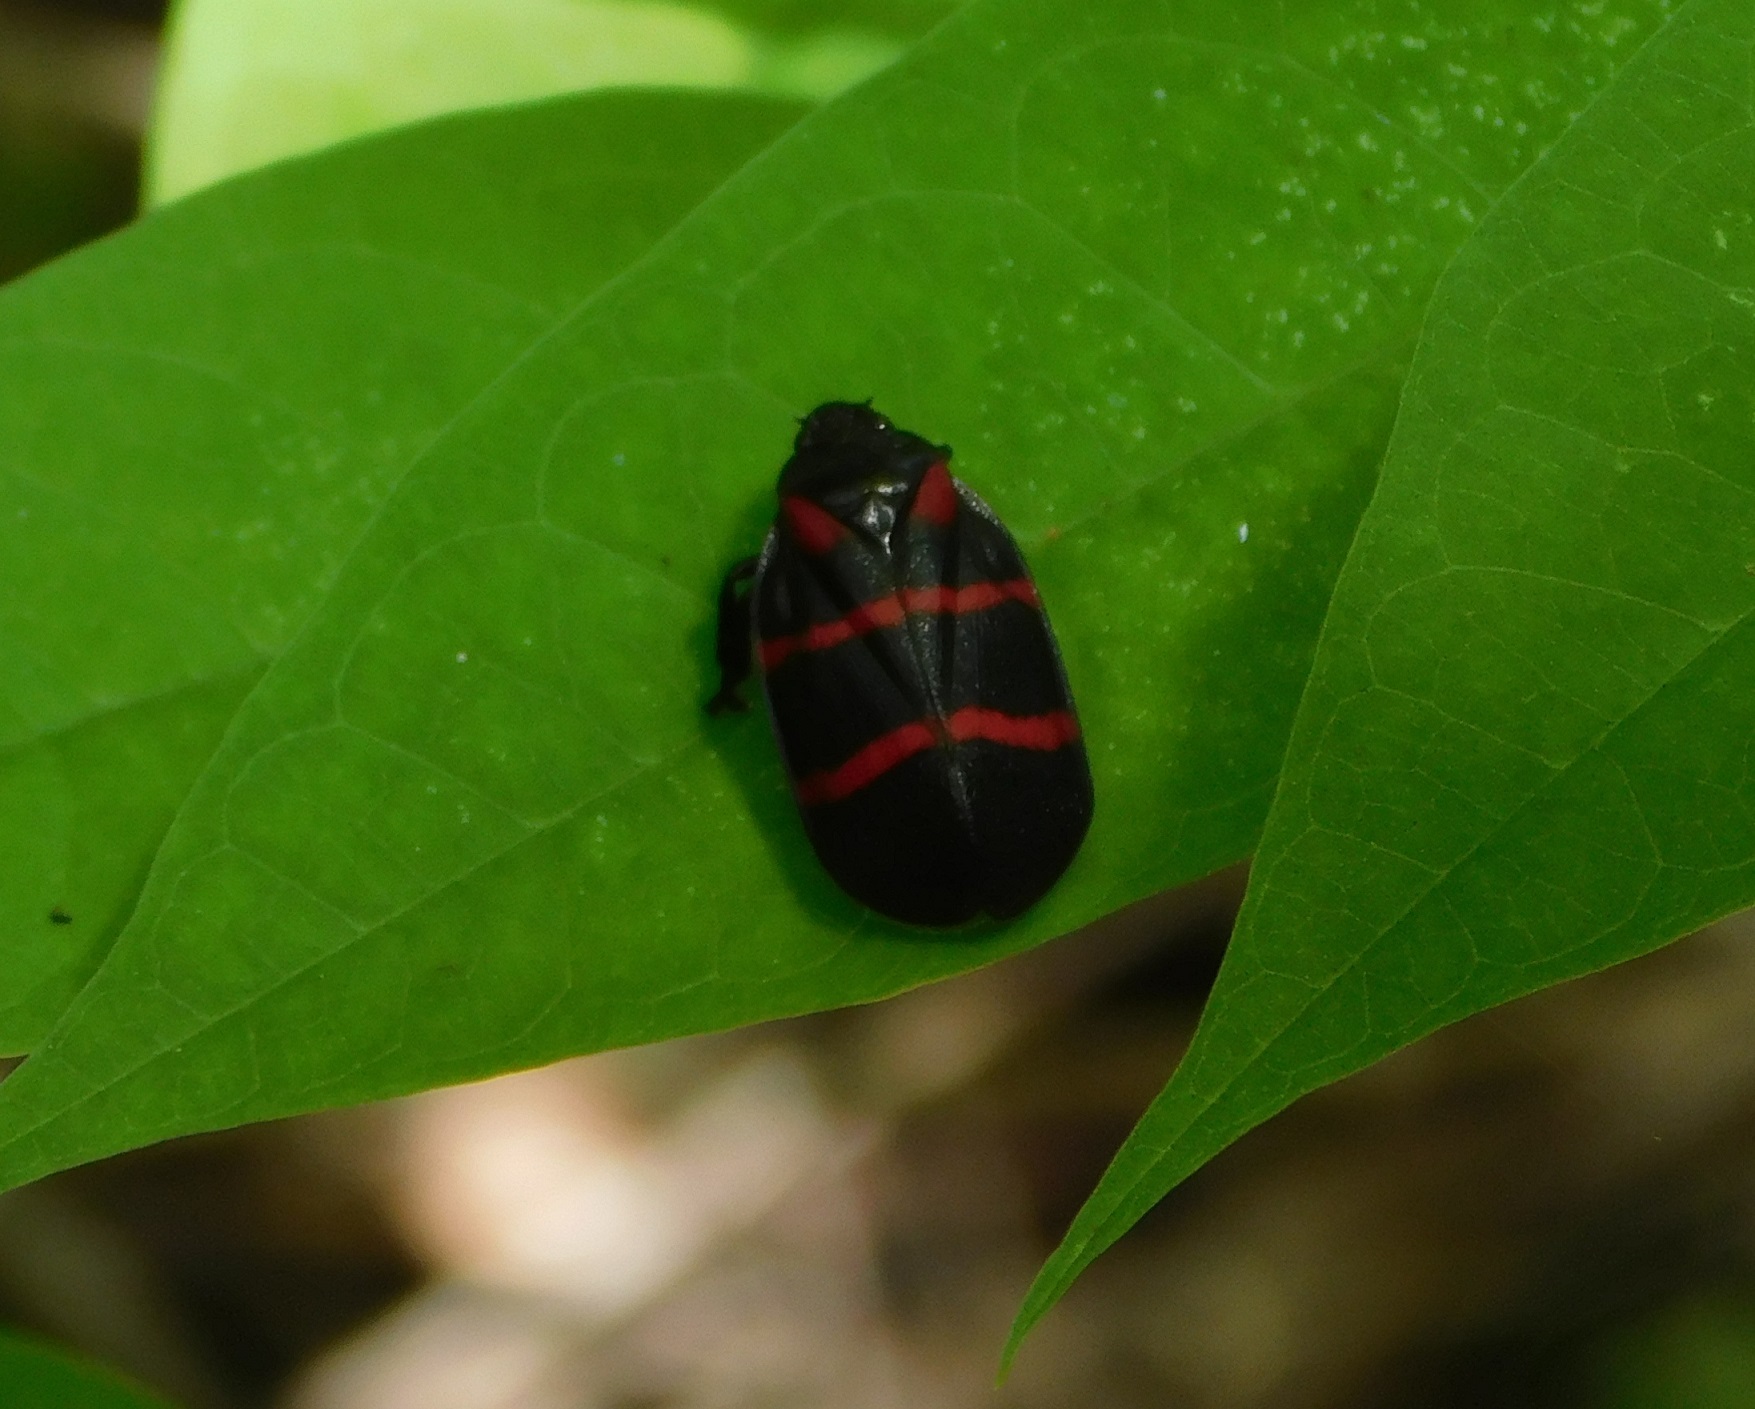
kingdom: Animalia
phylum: Arthropoda
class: Insecta
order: Hemiptera
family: Cercopidae
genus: Huaina
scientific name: Huaina inca
